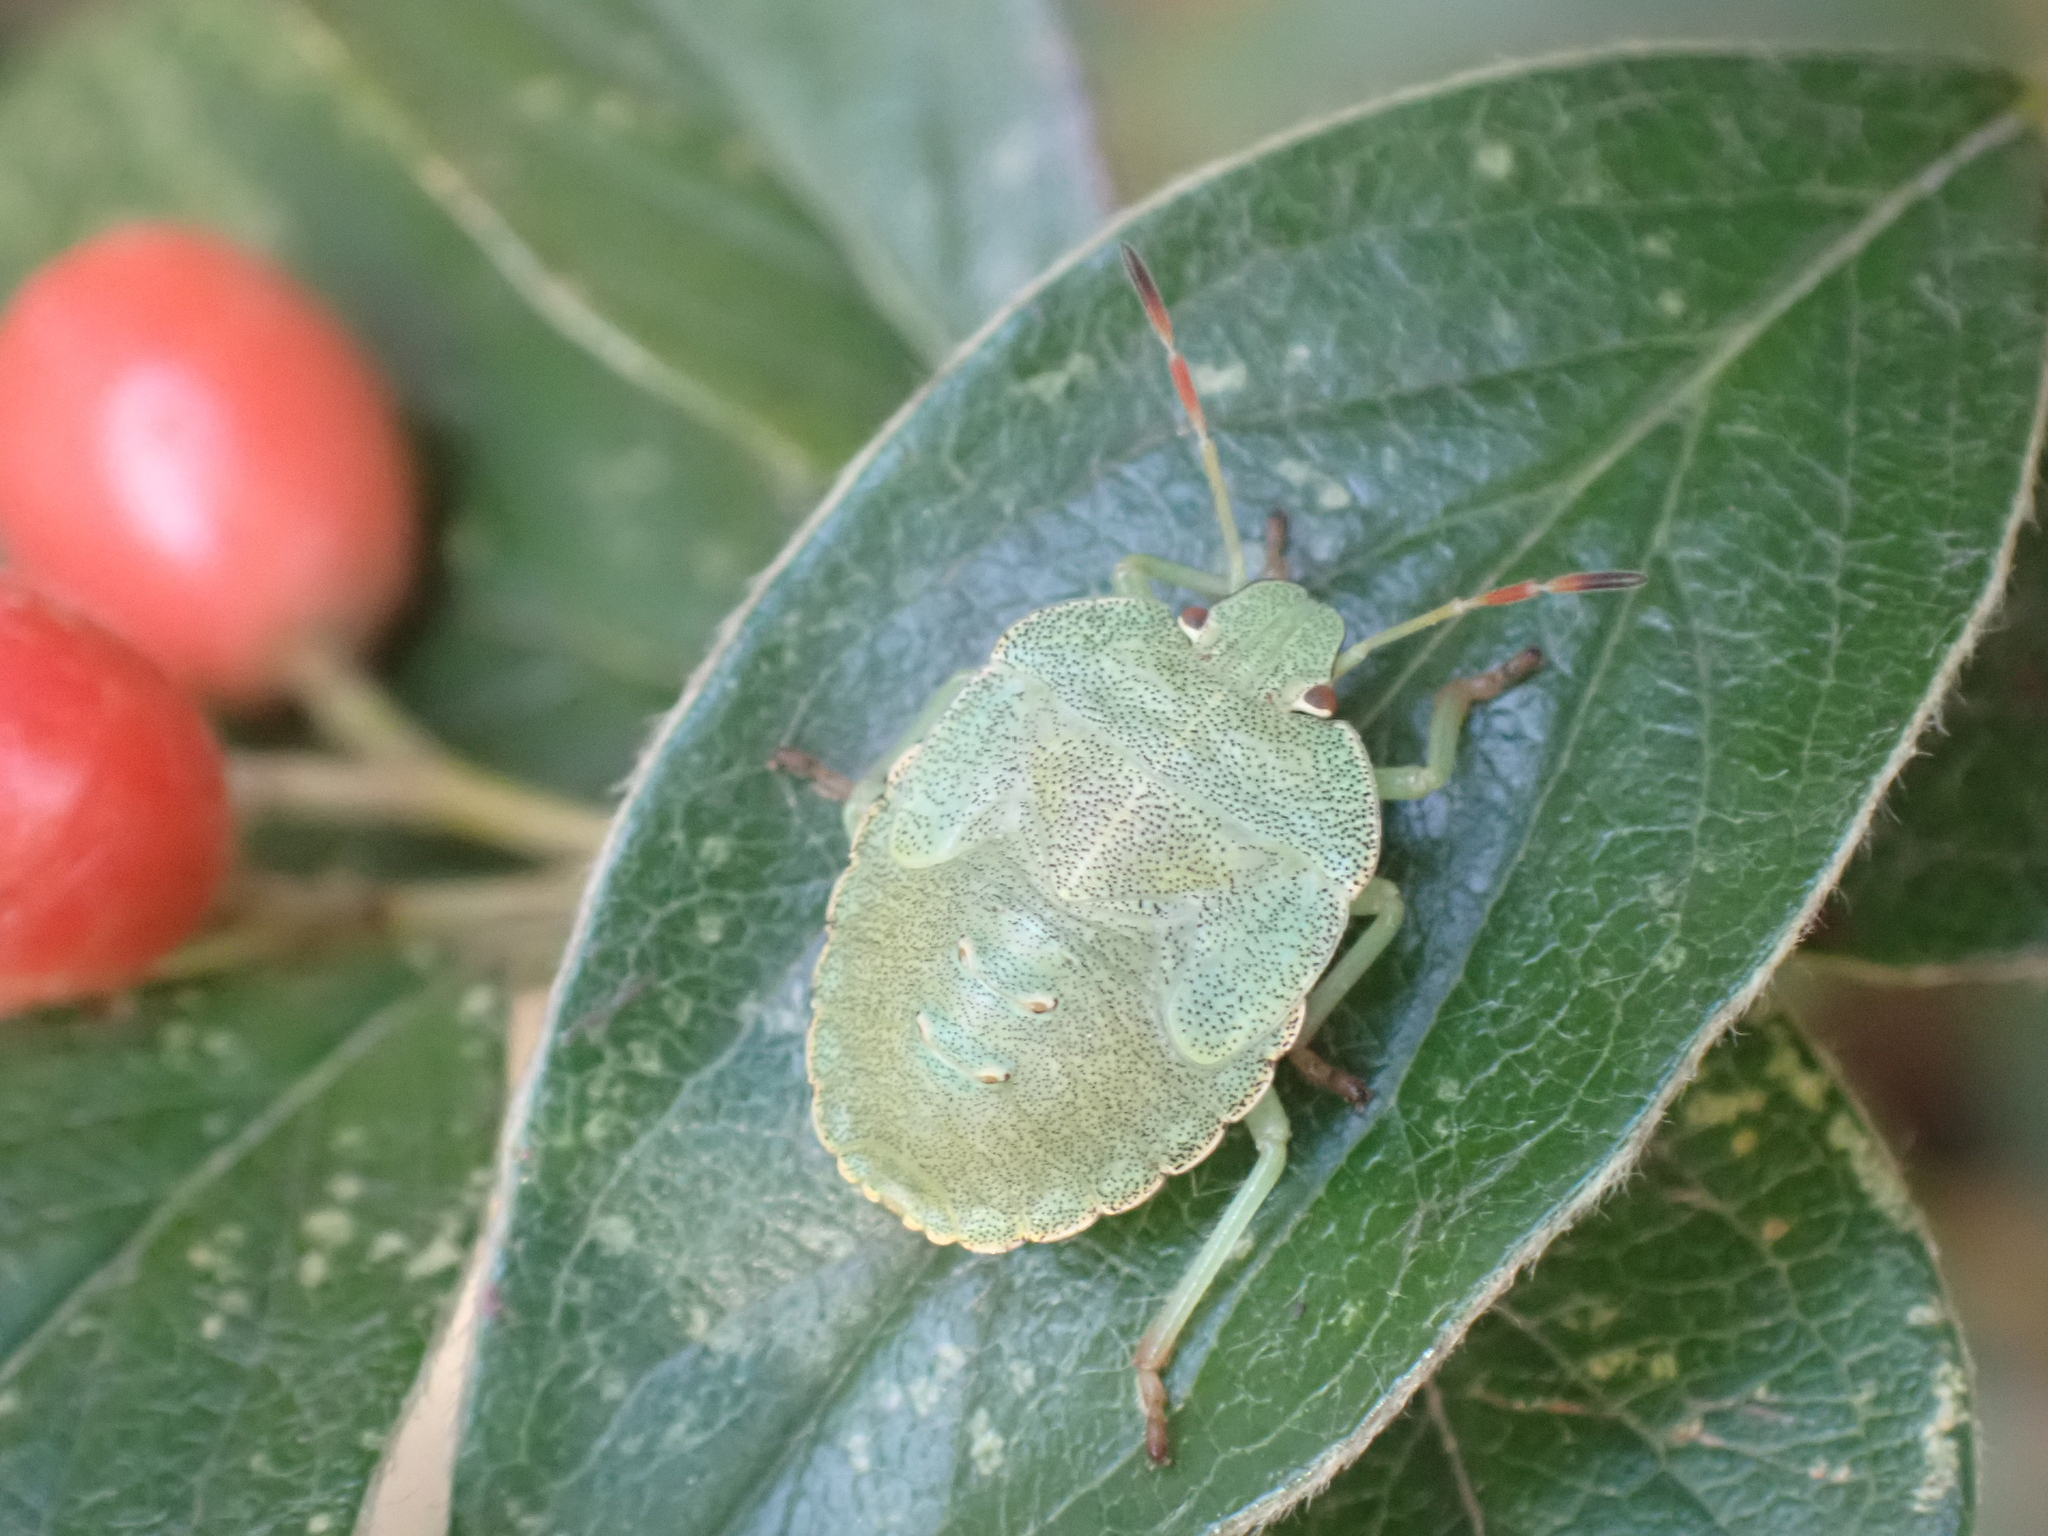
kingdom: Animalia
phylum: Arthropoda
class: Insecta
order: Hemiptera
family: Pentatomidae
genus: Palomena
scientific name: Palomena prasina
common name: Green shieldbug
